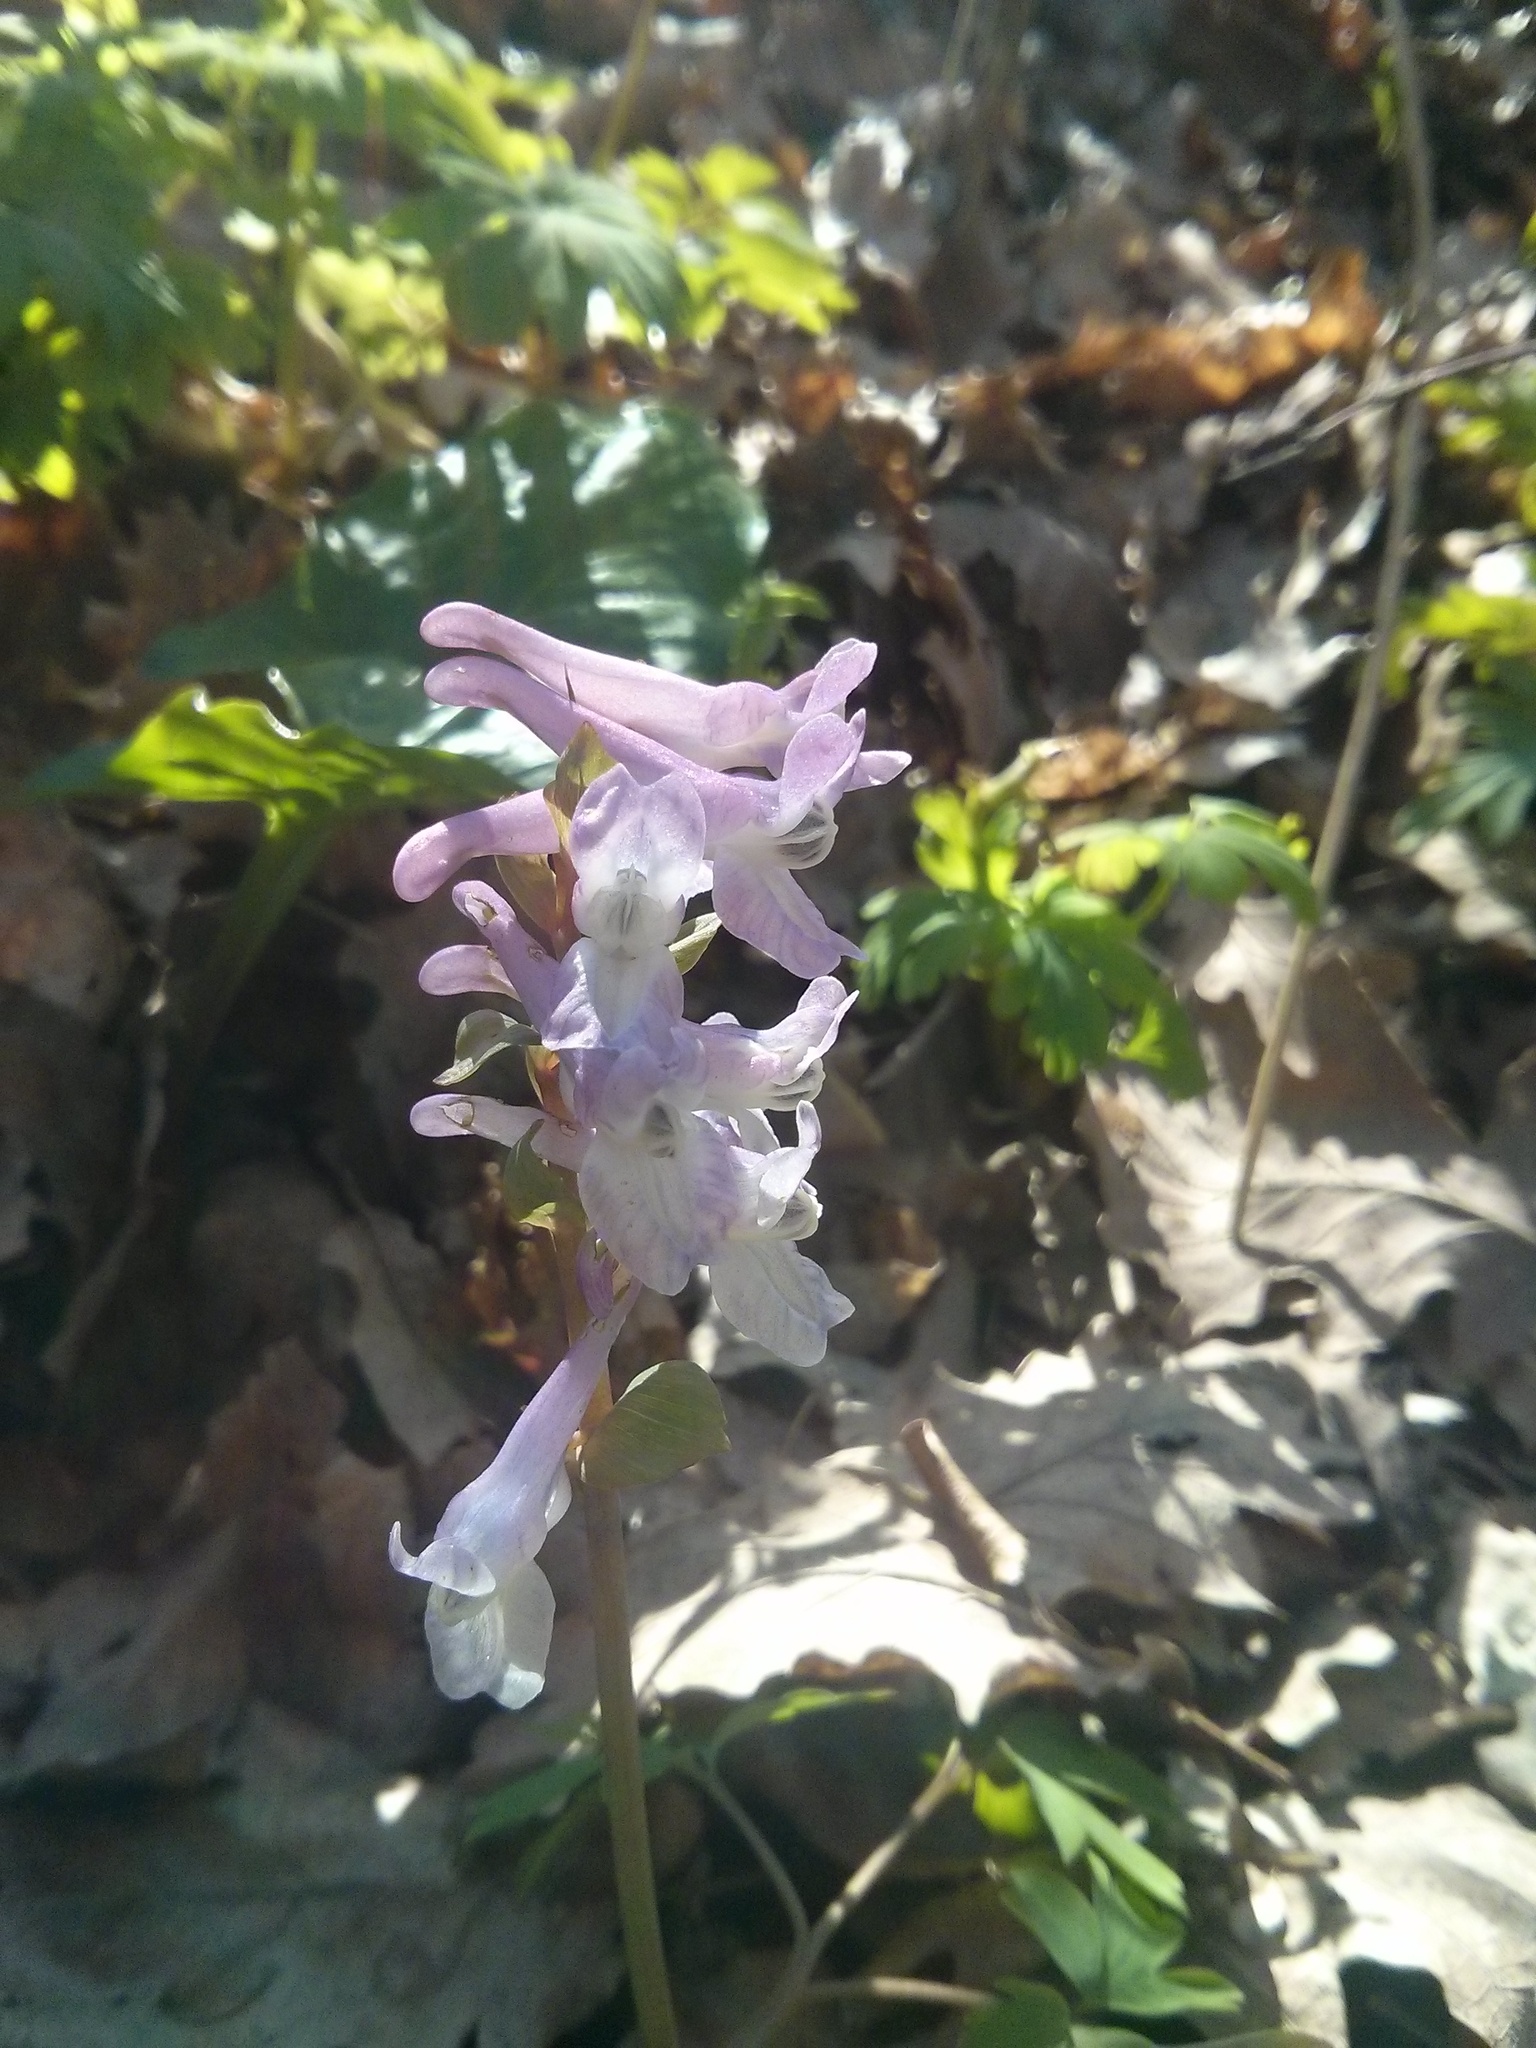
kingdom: Plantae
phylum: Tracheophyta
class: Magnoliopsida
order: Ranunculales
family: Papaveraceae
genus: Corydalis
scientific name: Corydalis cava
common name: Hollowroot
